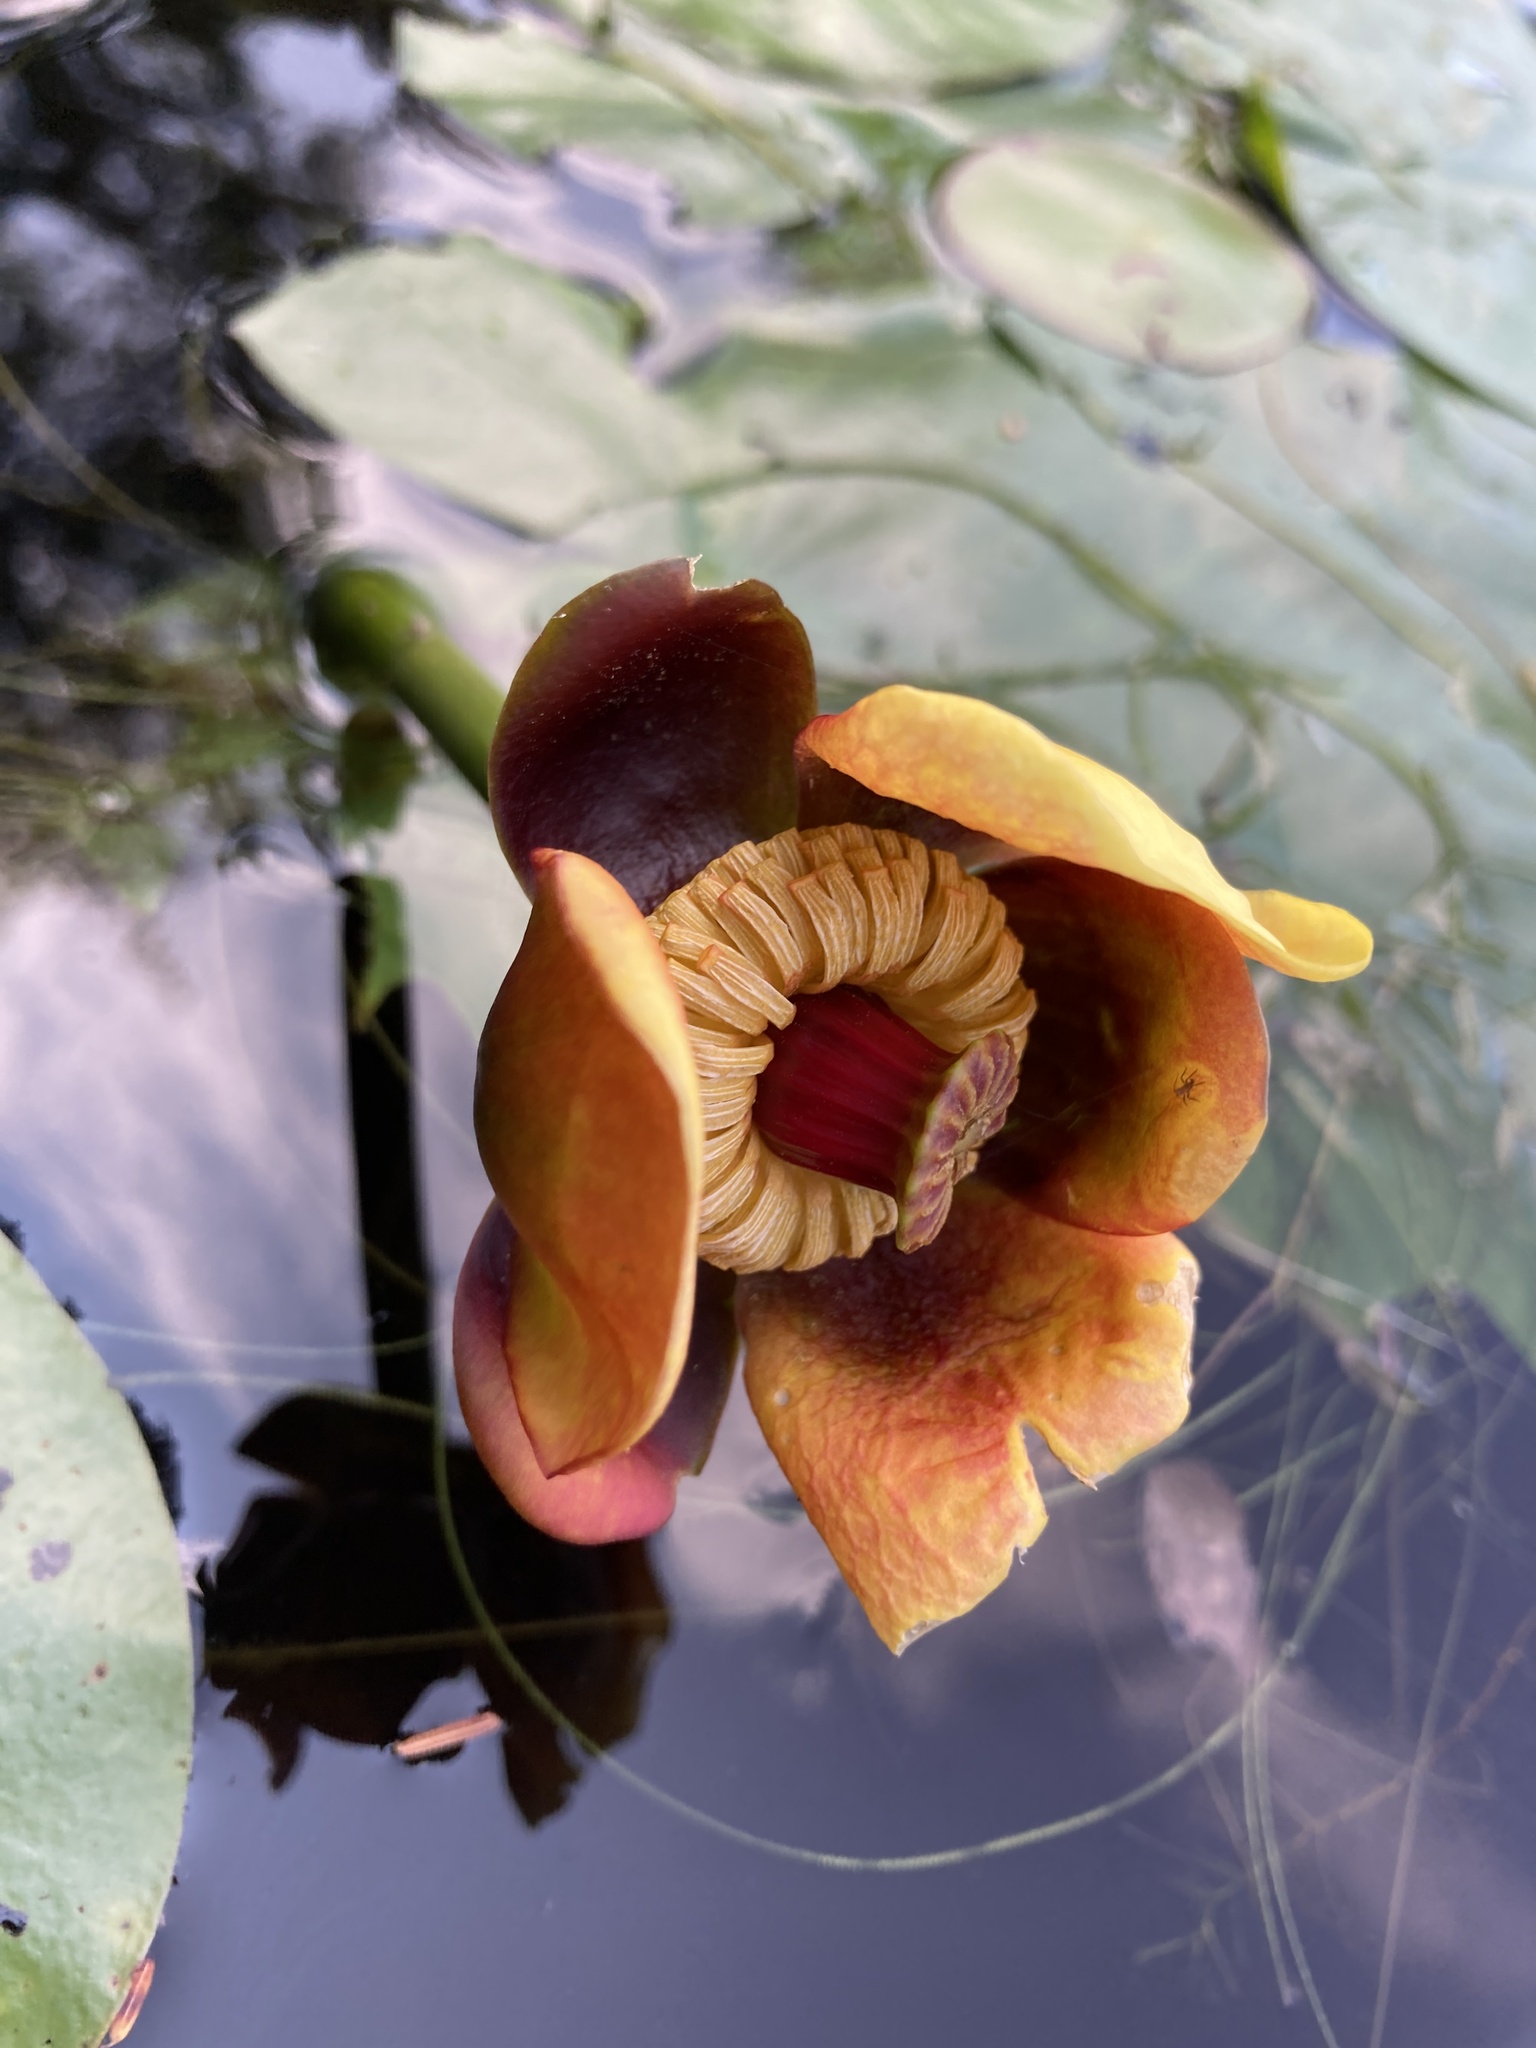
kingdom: Plantae
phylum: Tracheophyta
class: Magnoliopsida
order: Nymphaeales
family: Nymphaeaceae
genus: Nuphar
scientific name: Nuphar variegata
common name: Beaver-root
